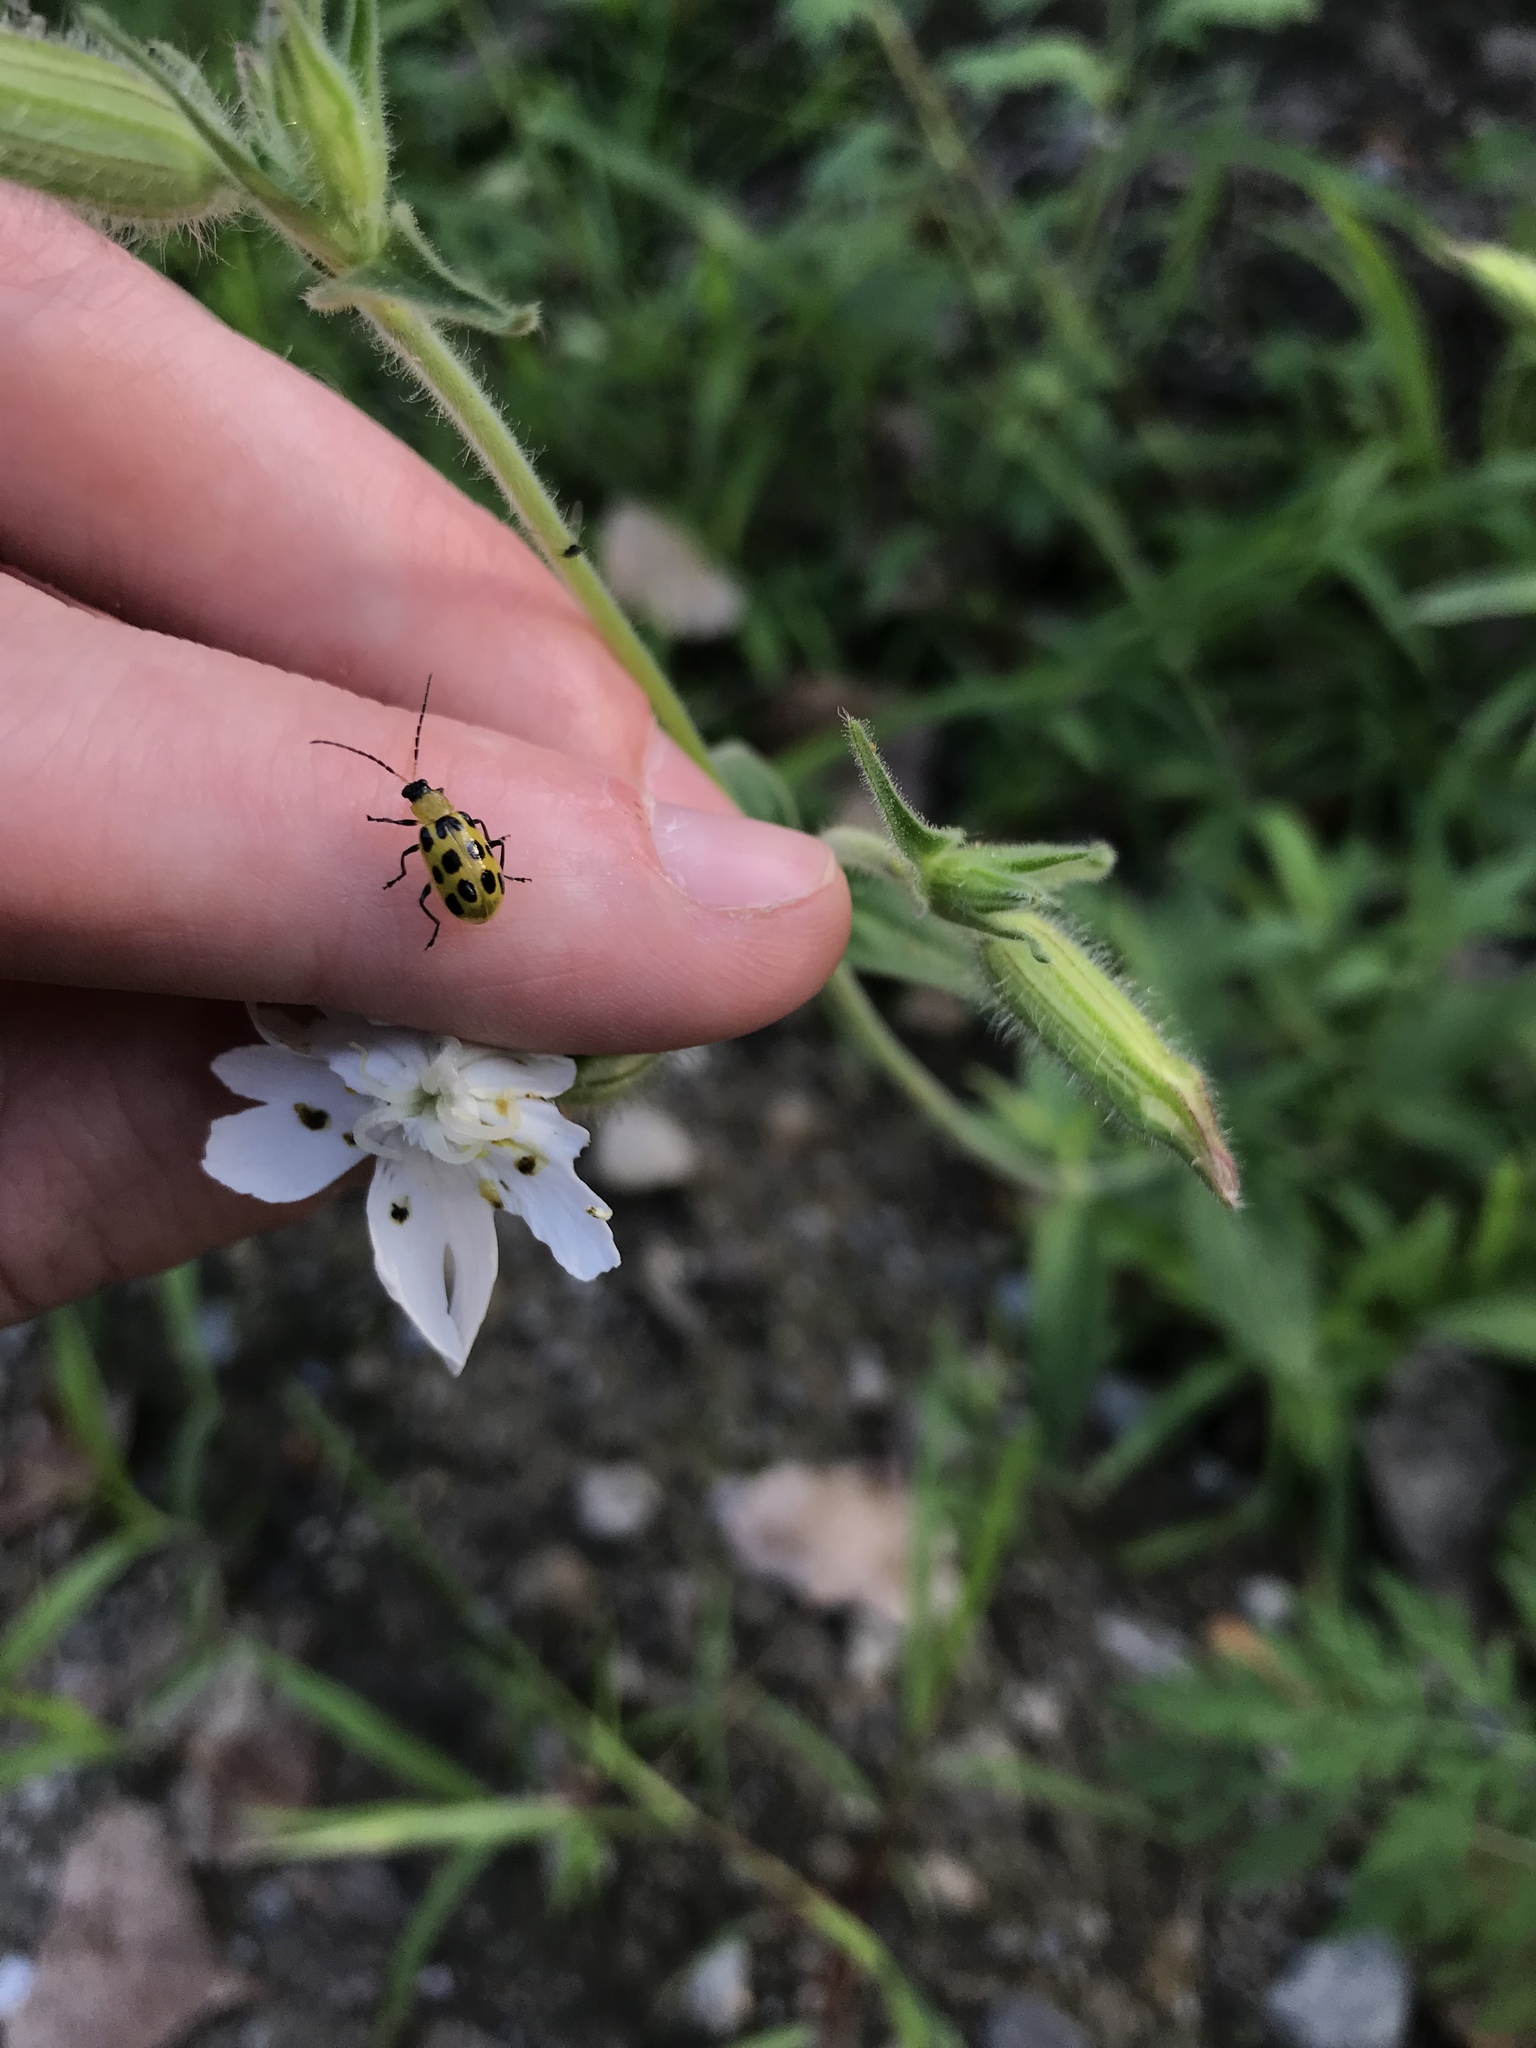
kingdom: Animalia
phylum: Arthropoda
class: Insecta
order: Coleoptera
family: Chrysomelidae
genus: Diabrotica
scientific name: Diabrotica undecimpunctata
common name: Spotted cucumber beetle
